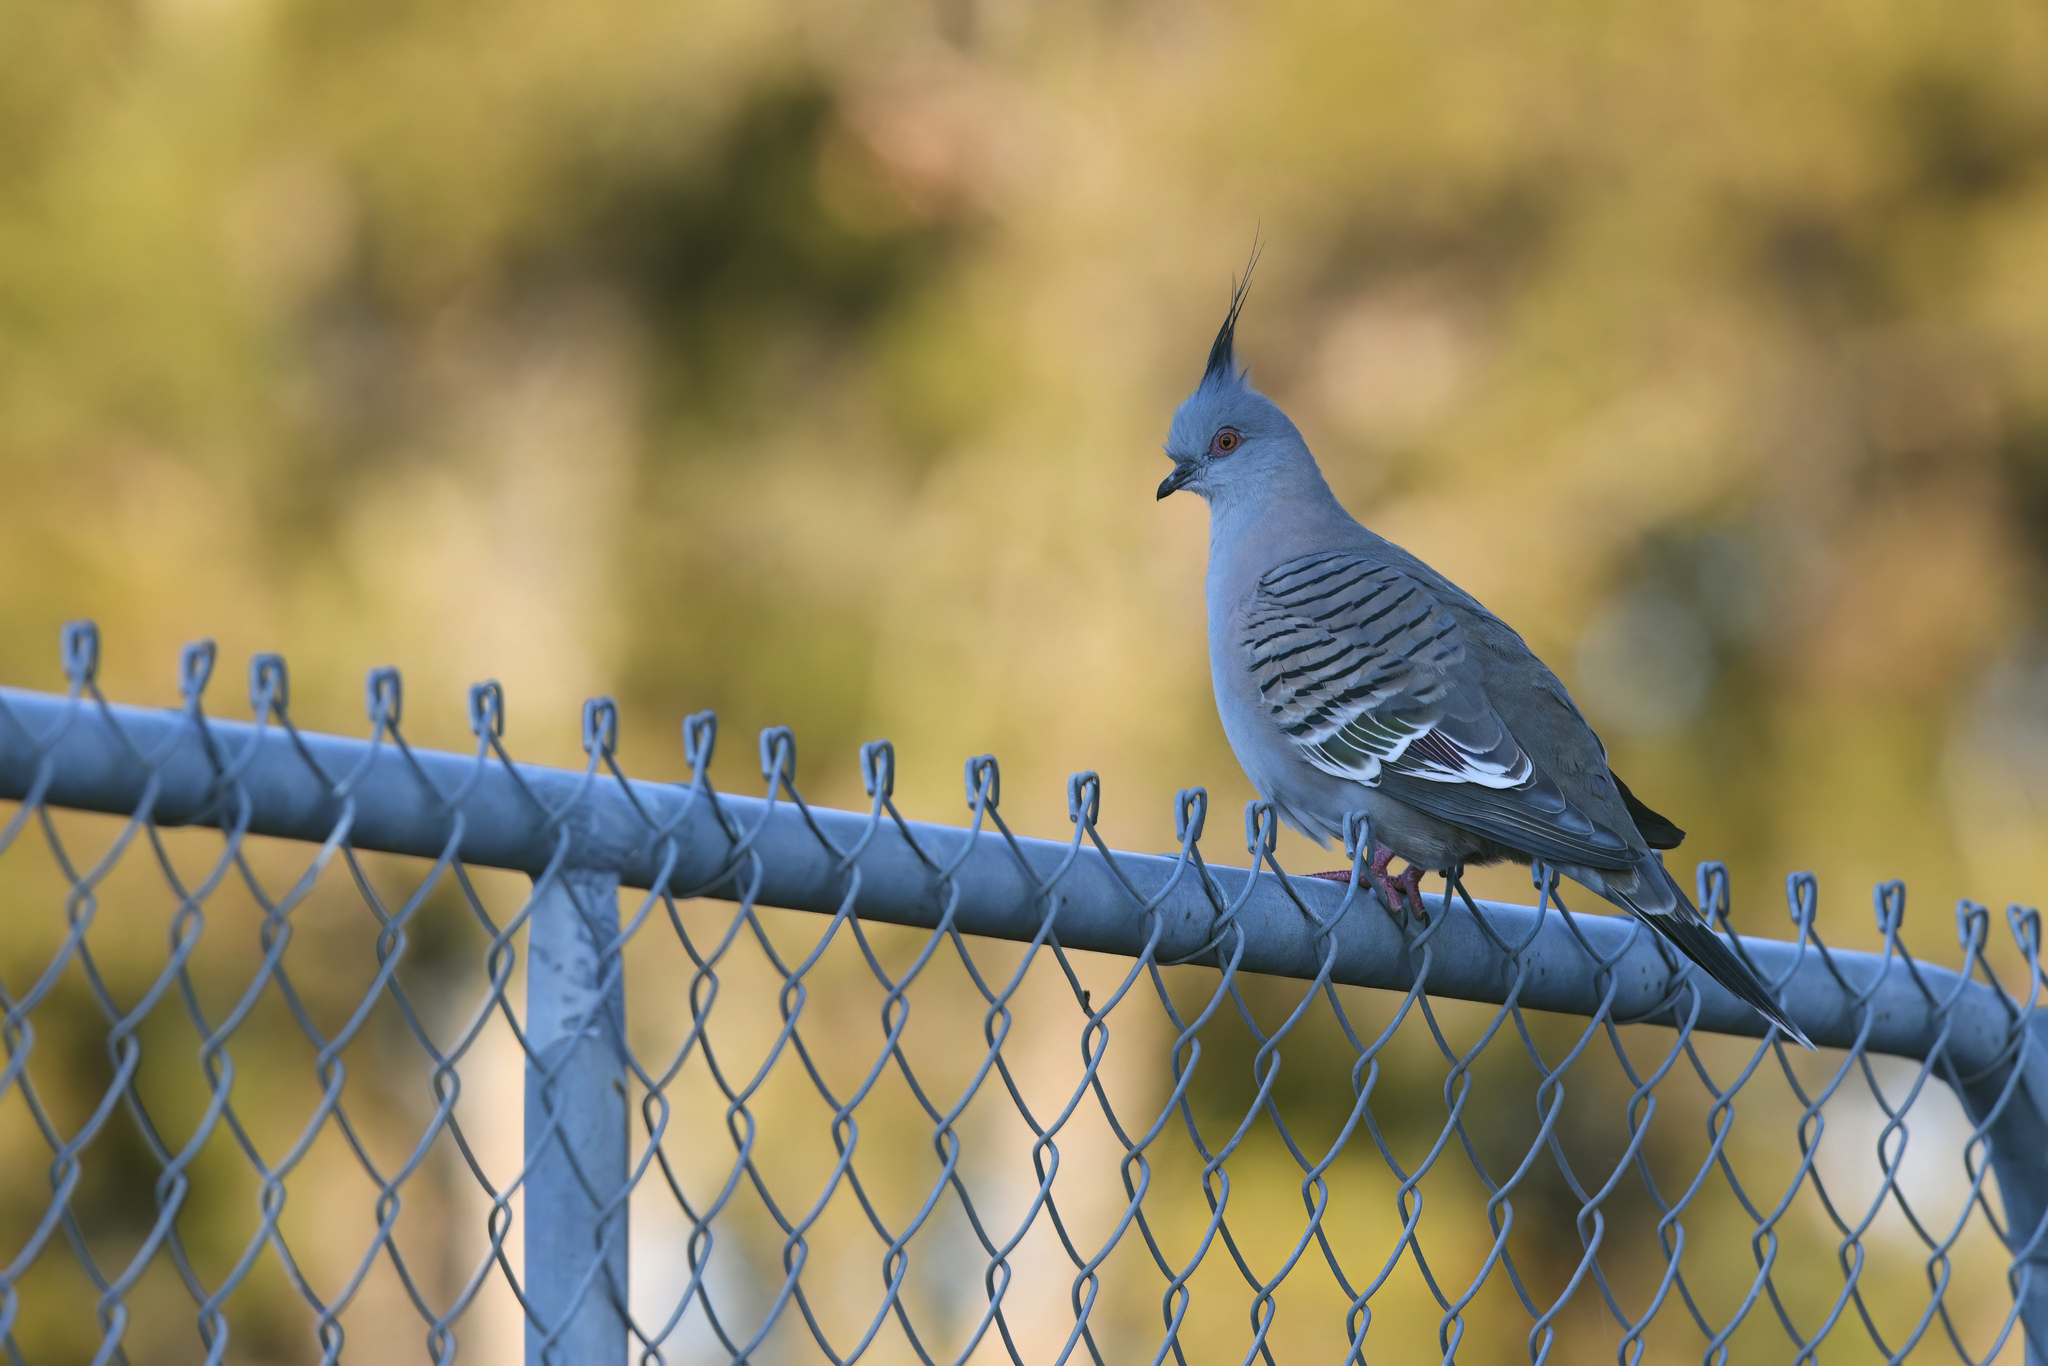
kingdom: Animalia
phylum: Chordata
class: Aves
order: Columbiformes
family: Columbidae
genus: Ocyphaps
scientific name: Ocyphaps lophotes
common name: Crested pigeon
